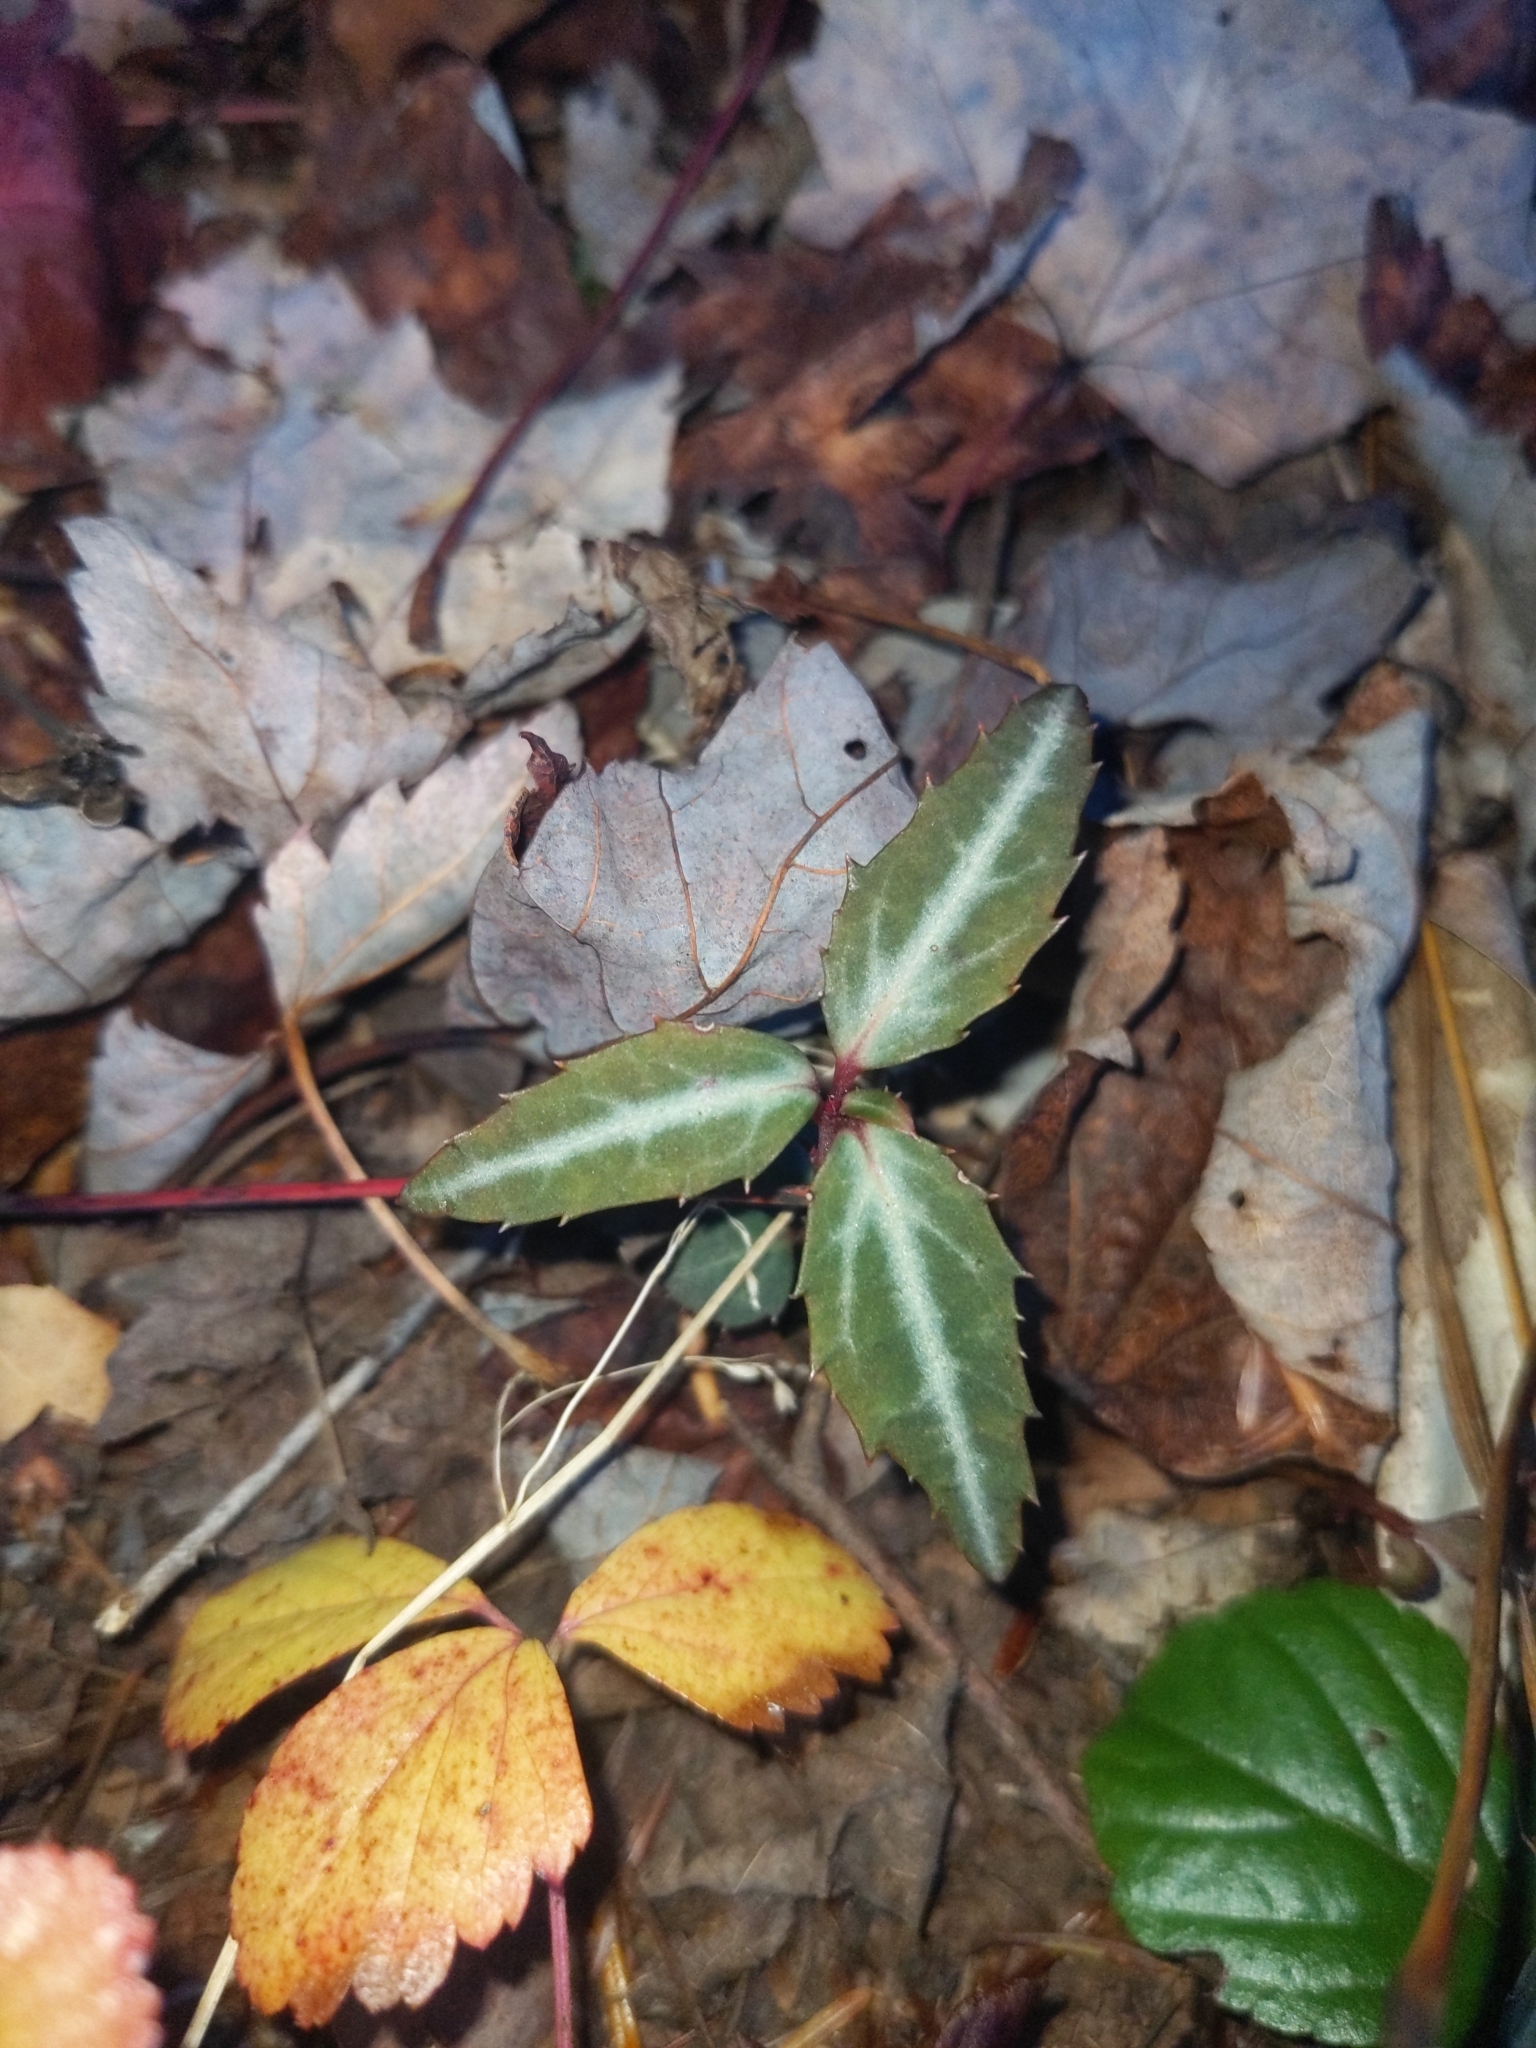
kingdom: Plantae
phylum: Tracheophyta
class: Magnoliopsida
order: Ericales
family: Ericaceae
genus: Chimaphila
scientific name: Chimaphila maculata
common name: Spotted pipsissewa
